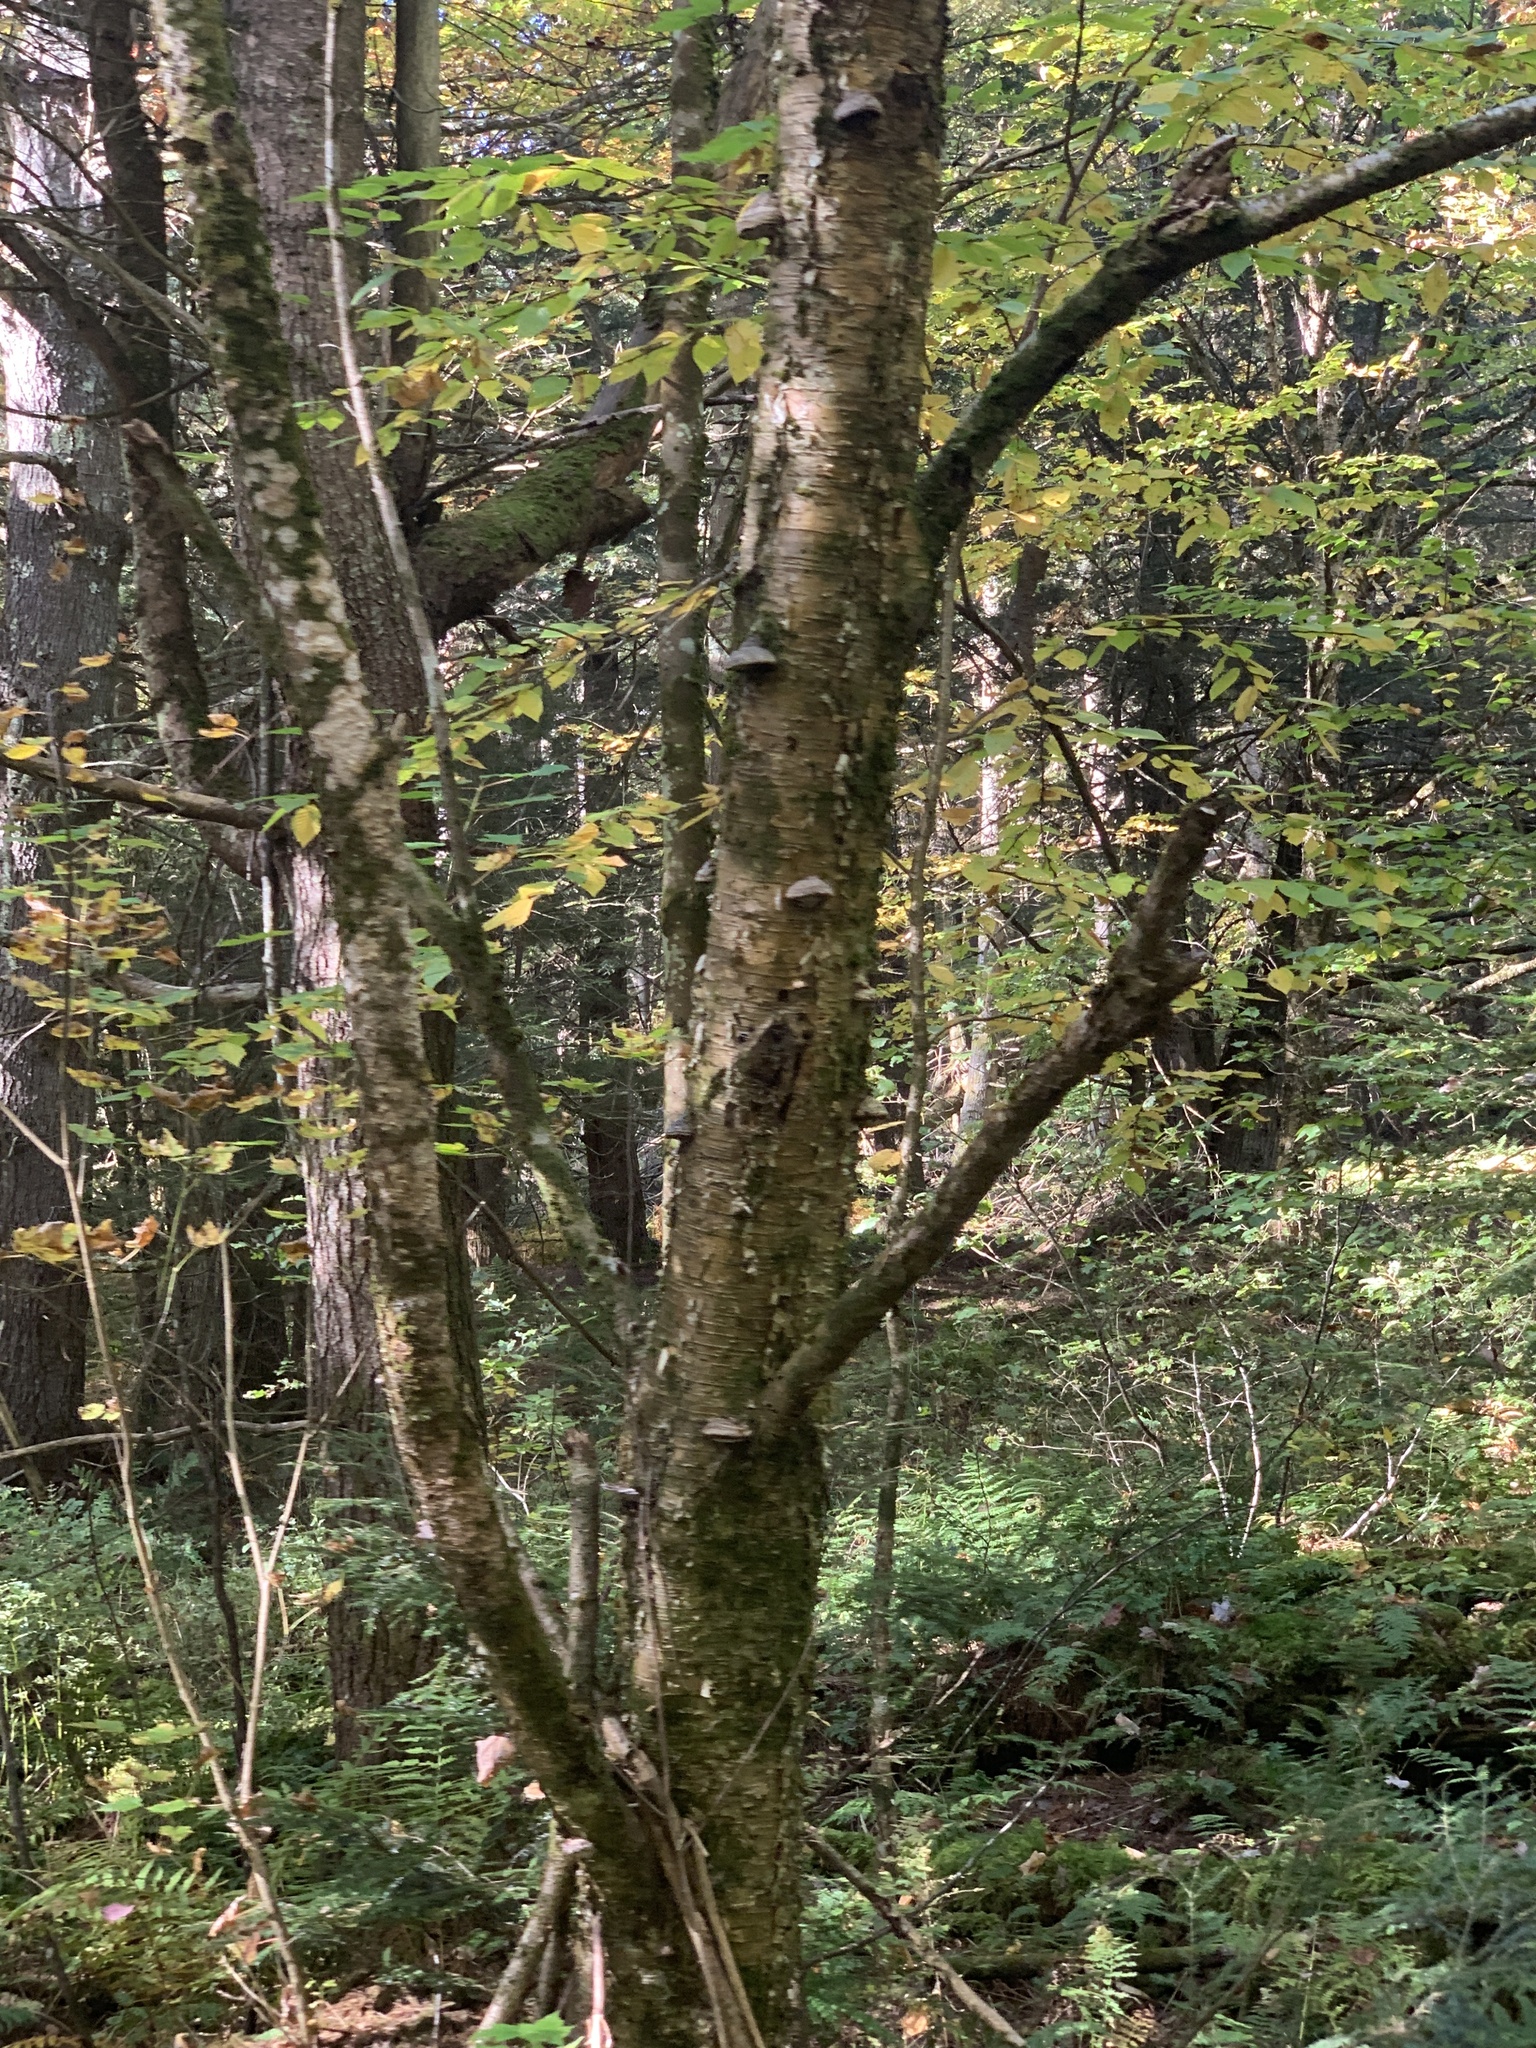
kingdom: Plantae
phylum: Tracheophyta
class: Magnoliopsida
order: Fagales
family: Betulaceae
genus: Betula
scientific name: Betula alleghaniensis
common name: Yellow birch
